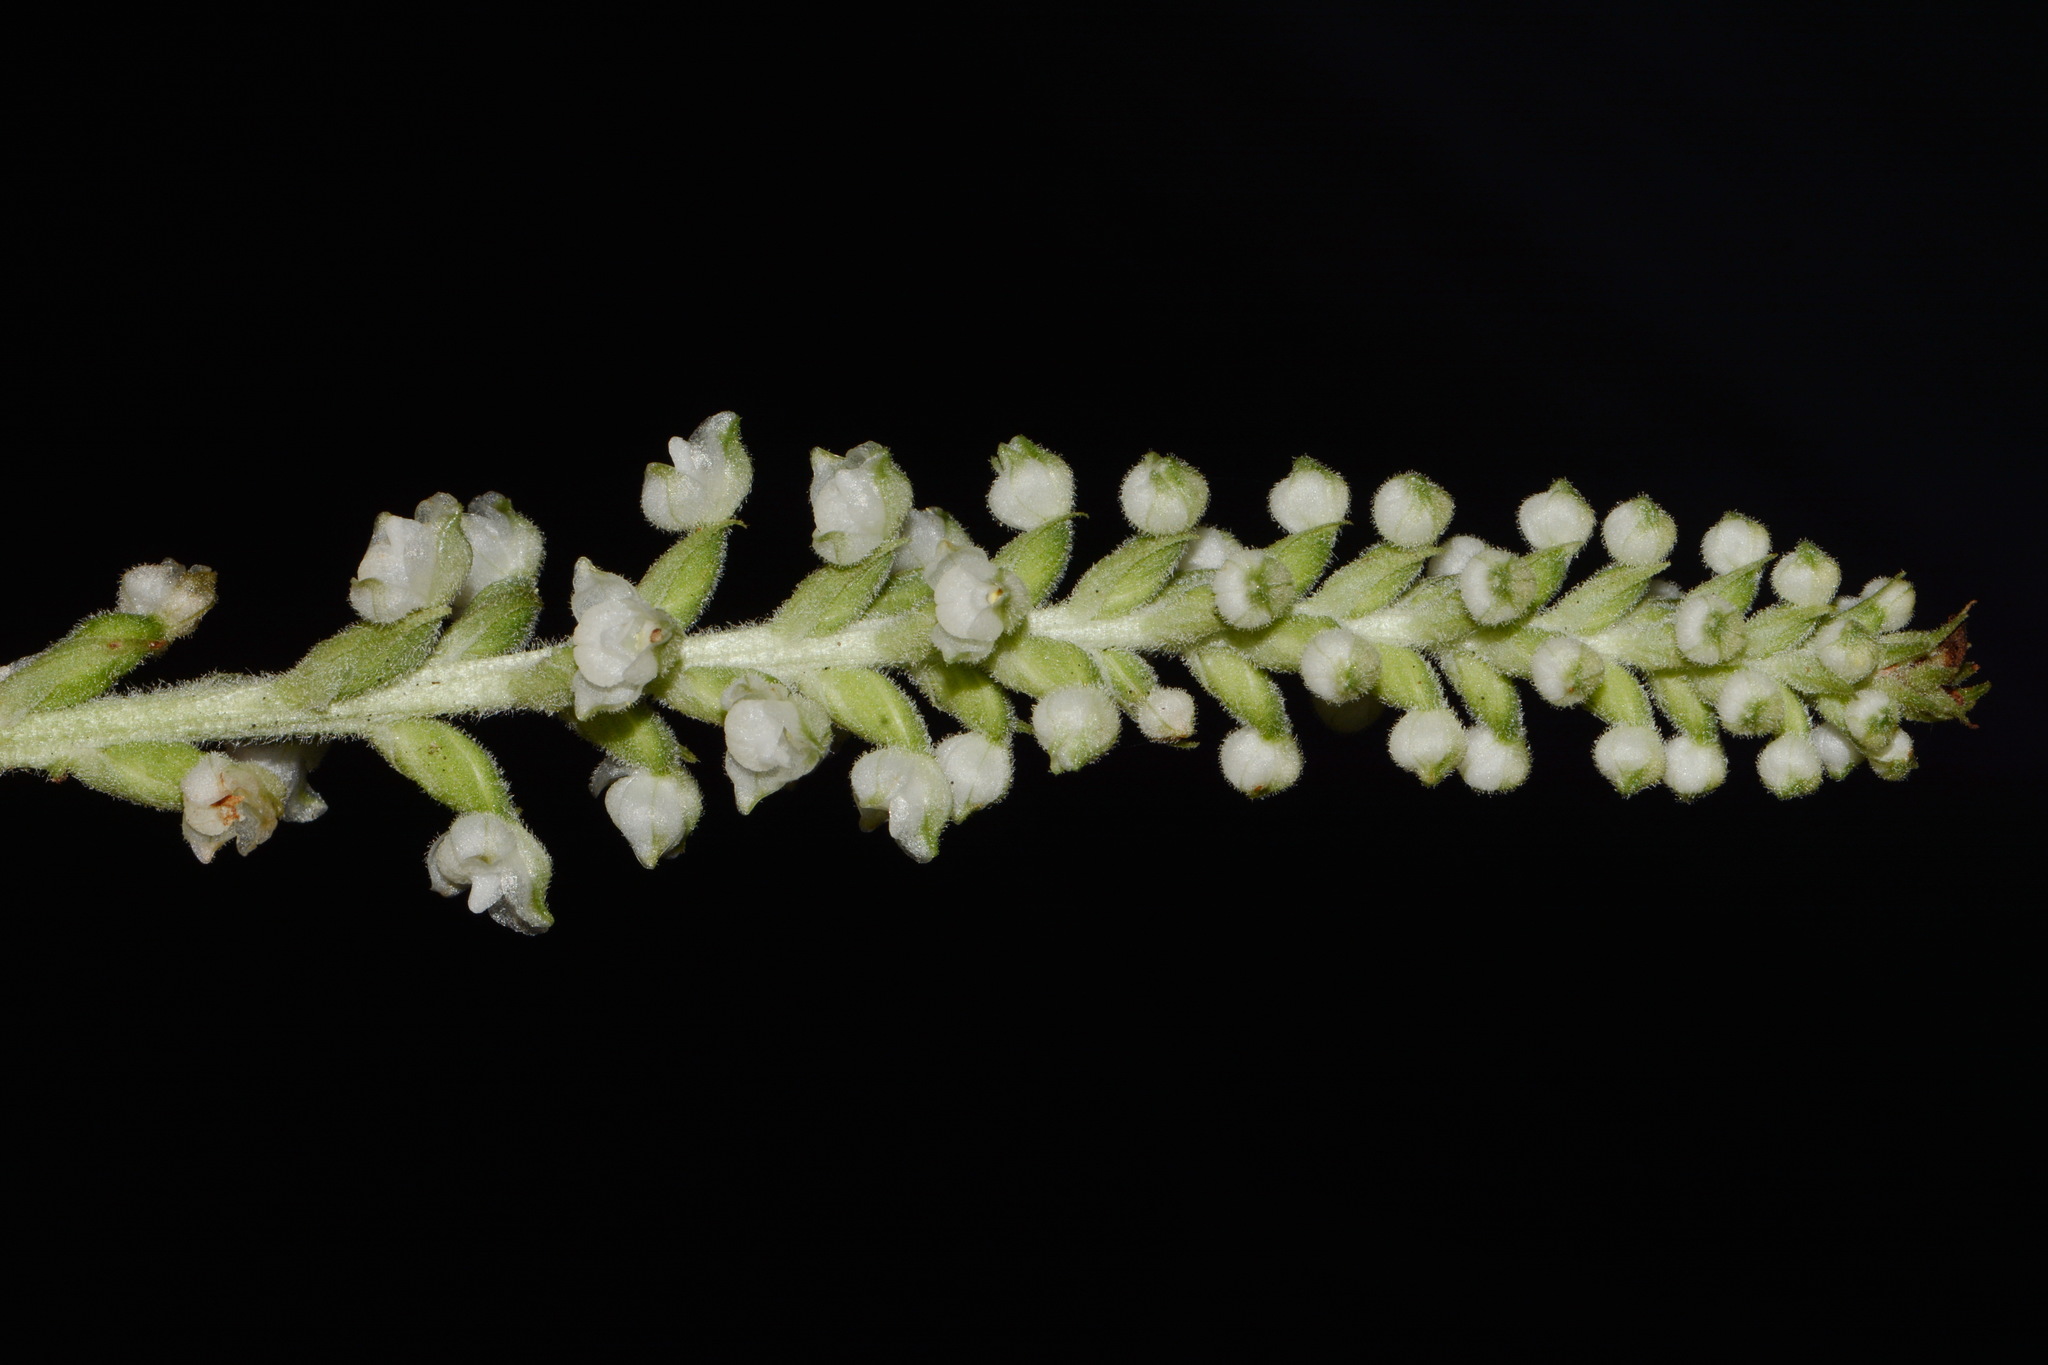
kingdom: Plantae
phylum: Tracheophyta
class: Liliopsida
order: Asparagales
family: Orchidaceae
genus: Goodyera
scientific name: Goodyera pubescens
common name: Downy rattlesnake-plantain
